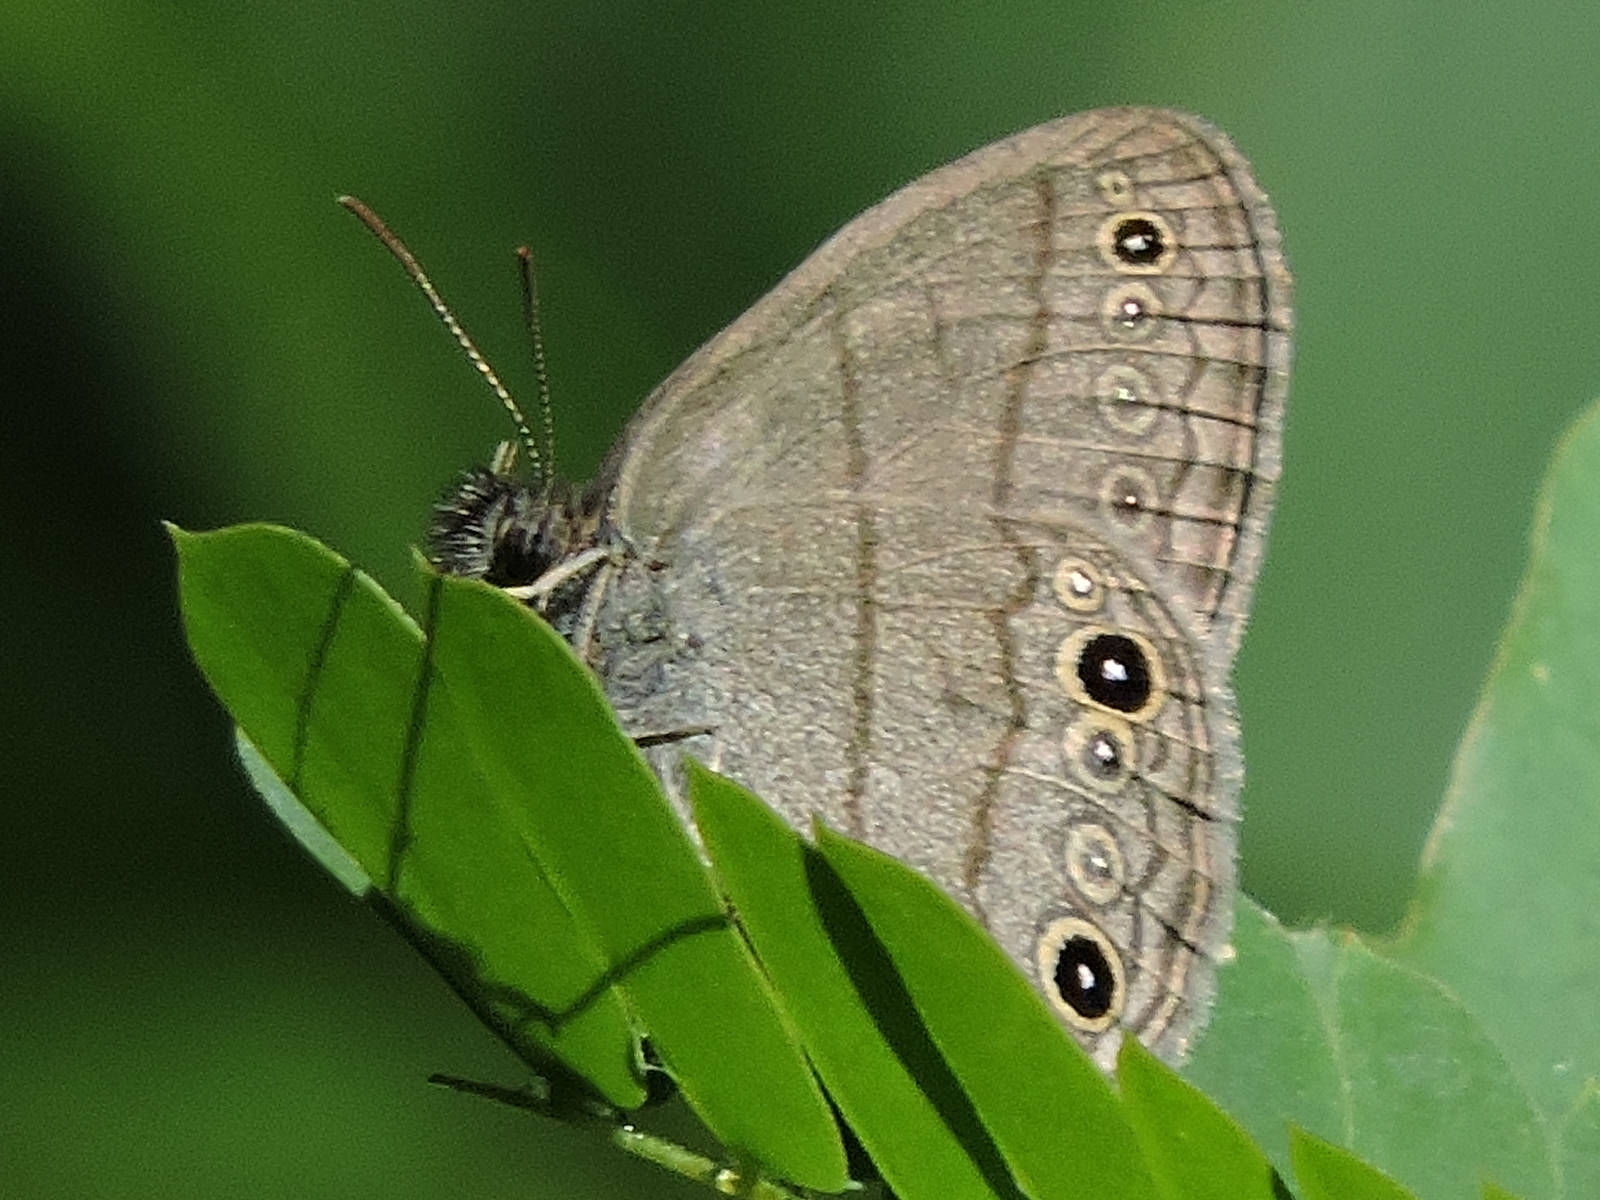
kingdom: Animalia
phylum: Arthropoda
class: Insecta
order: Lepidoptera
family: Nymphalidae
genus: Hermeuptychia
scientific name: Hermeuptychia hermes
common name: Hermes satyr
